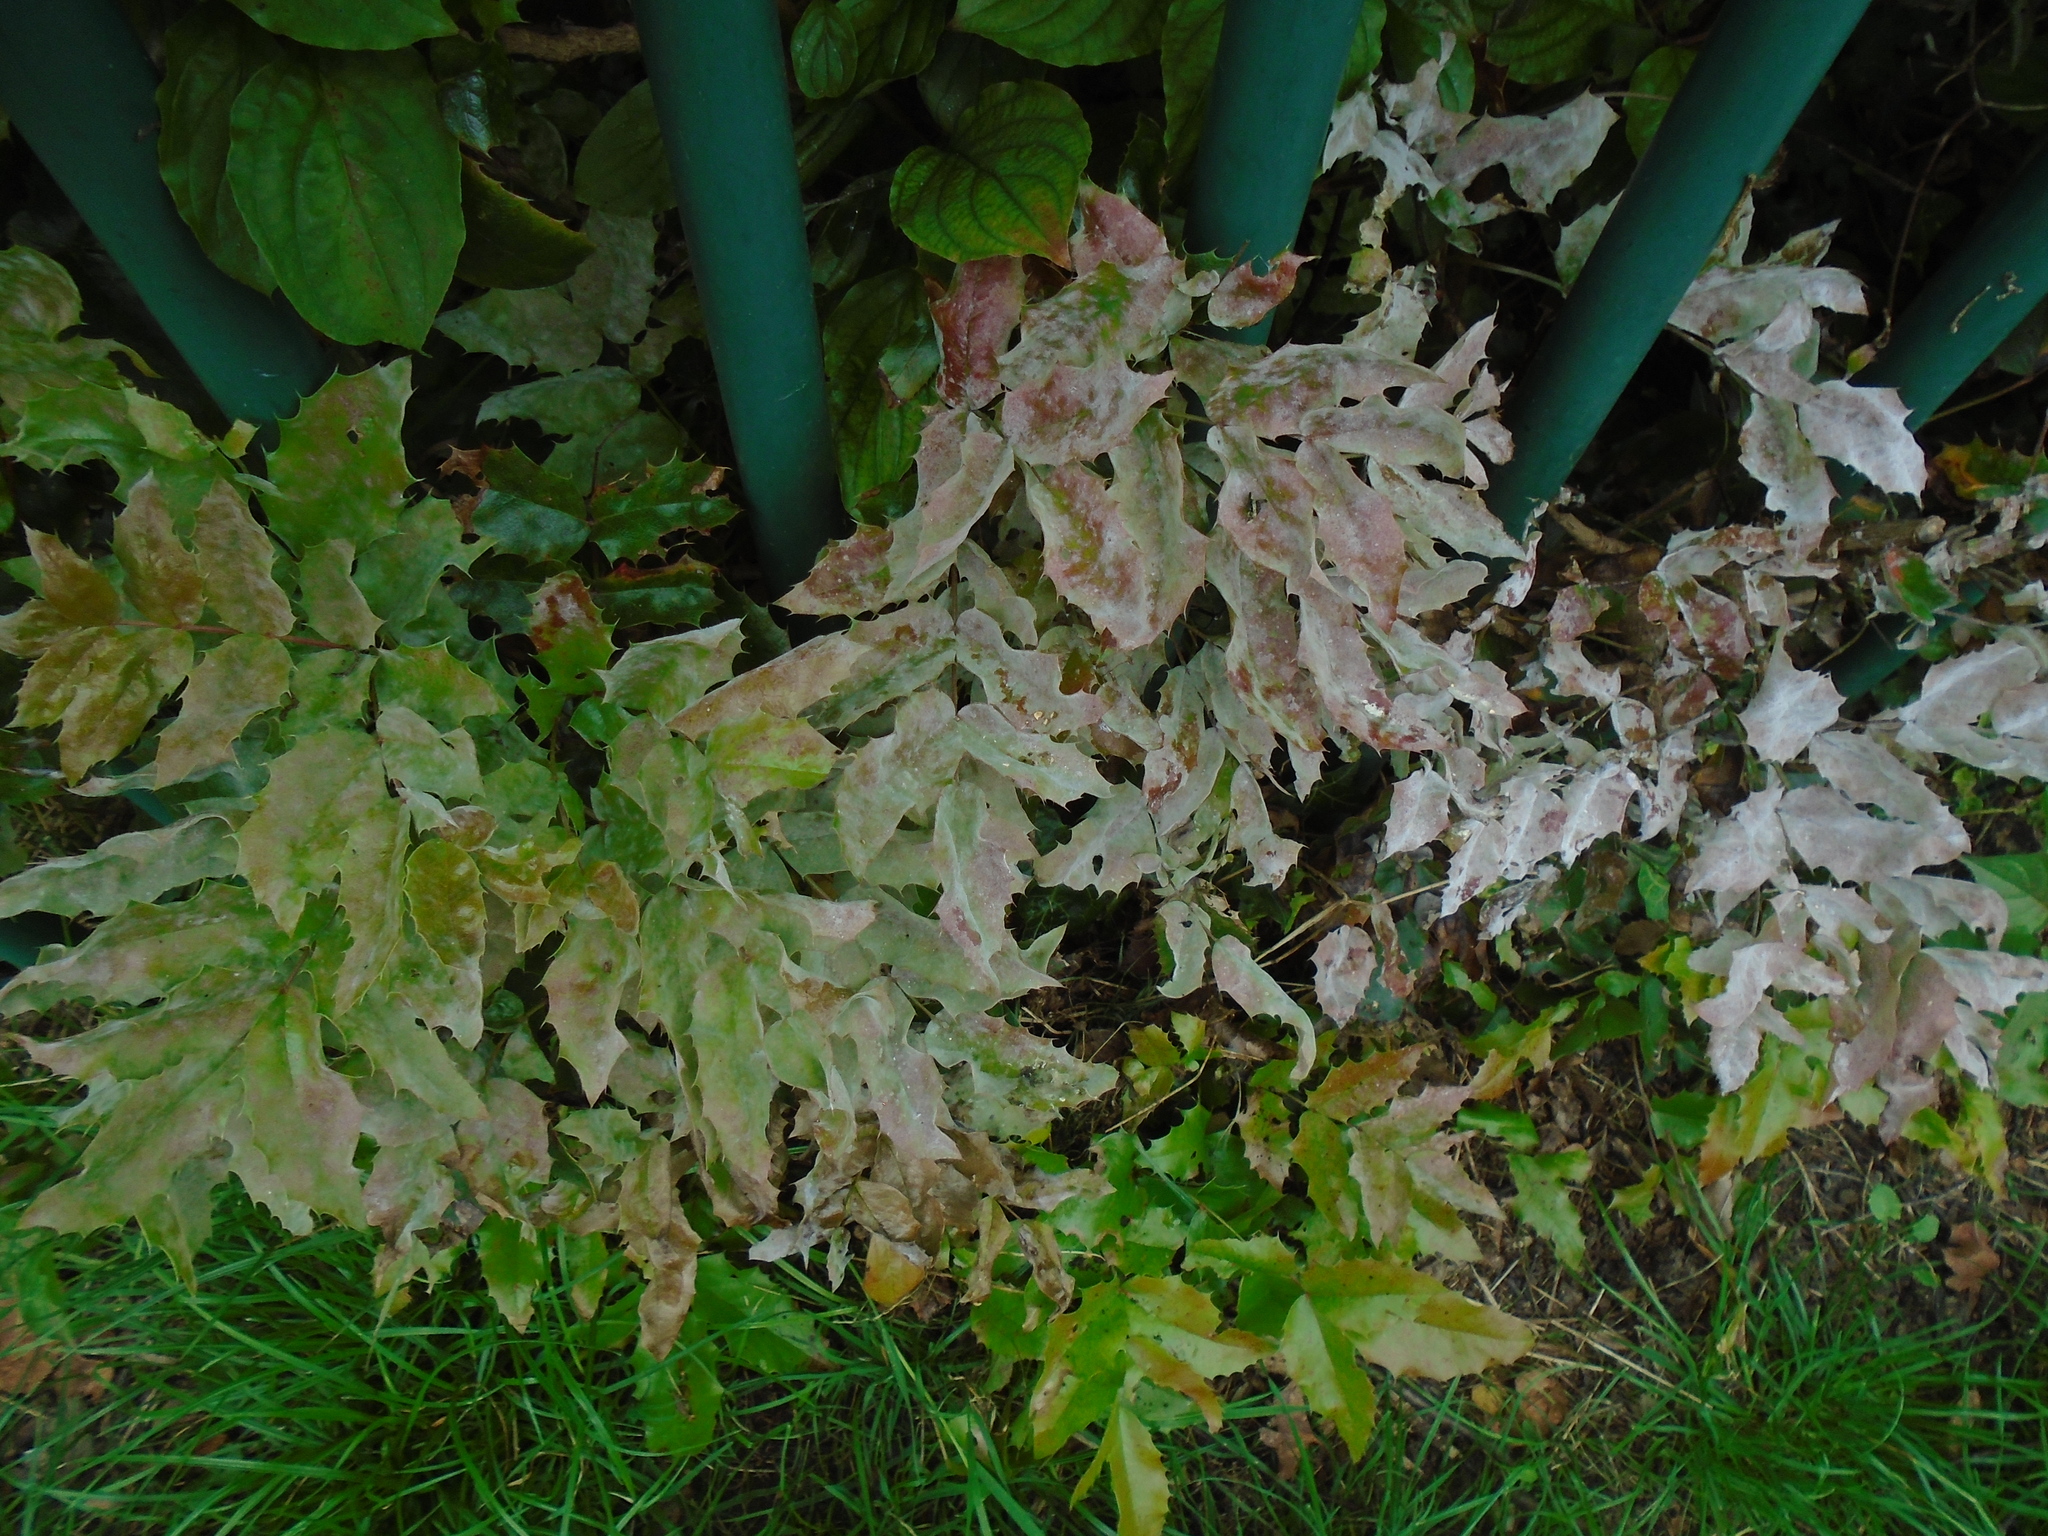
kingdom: Fungi
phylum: Ascomycota
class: Leotiomycetes
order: Helotiales
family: Erysiphaceae
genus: Erysiphe
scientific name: Erysiphe berberidis
